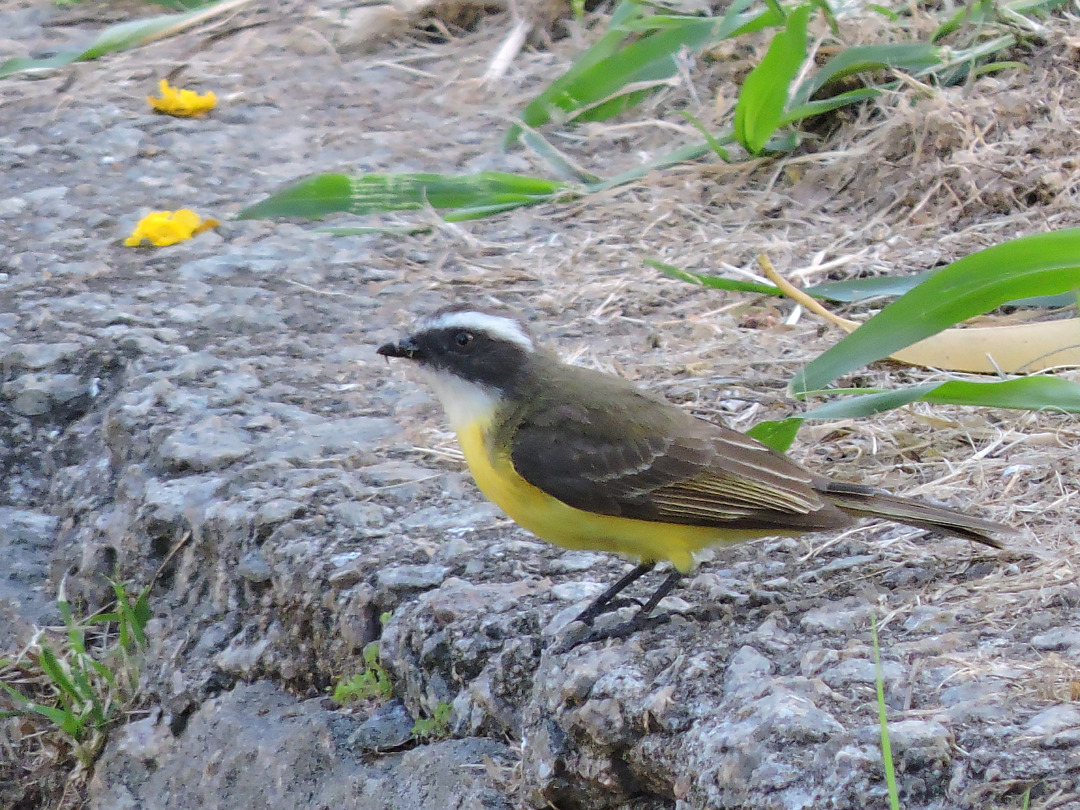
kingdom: Animalia
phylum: Chordata
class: Aves
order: Passeriformes
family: Tyrannidae
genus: Myiozetetes
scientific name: Myiozetetes similis
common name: Social flycatcher
